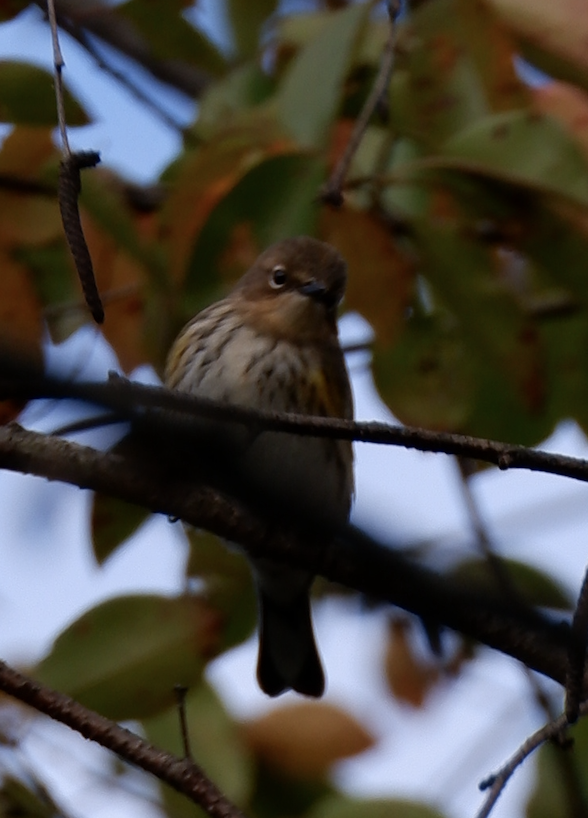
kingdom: Animalia
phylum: Chordata
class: Aves
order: Passeriformes
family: Parulidae
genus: Setophaga
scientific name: Setophaga coronata
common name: Myrtle warbler
